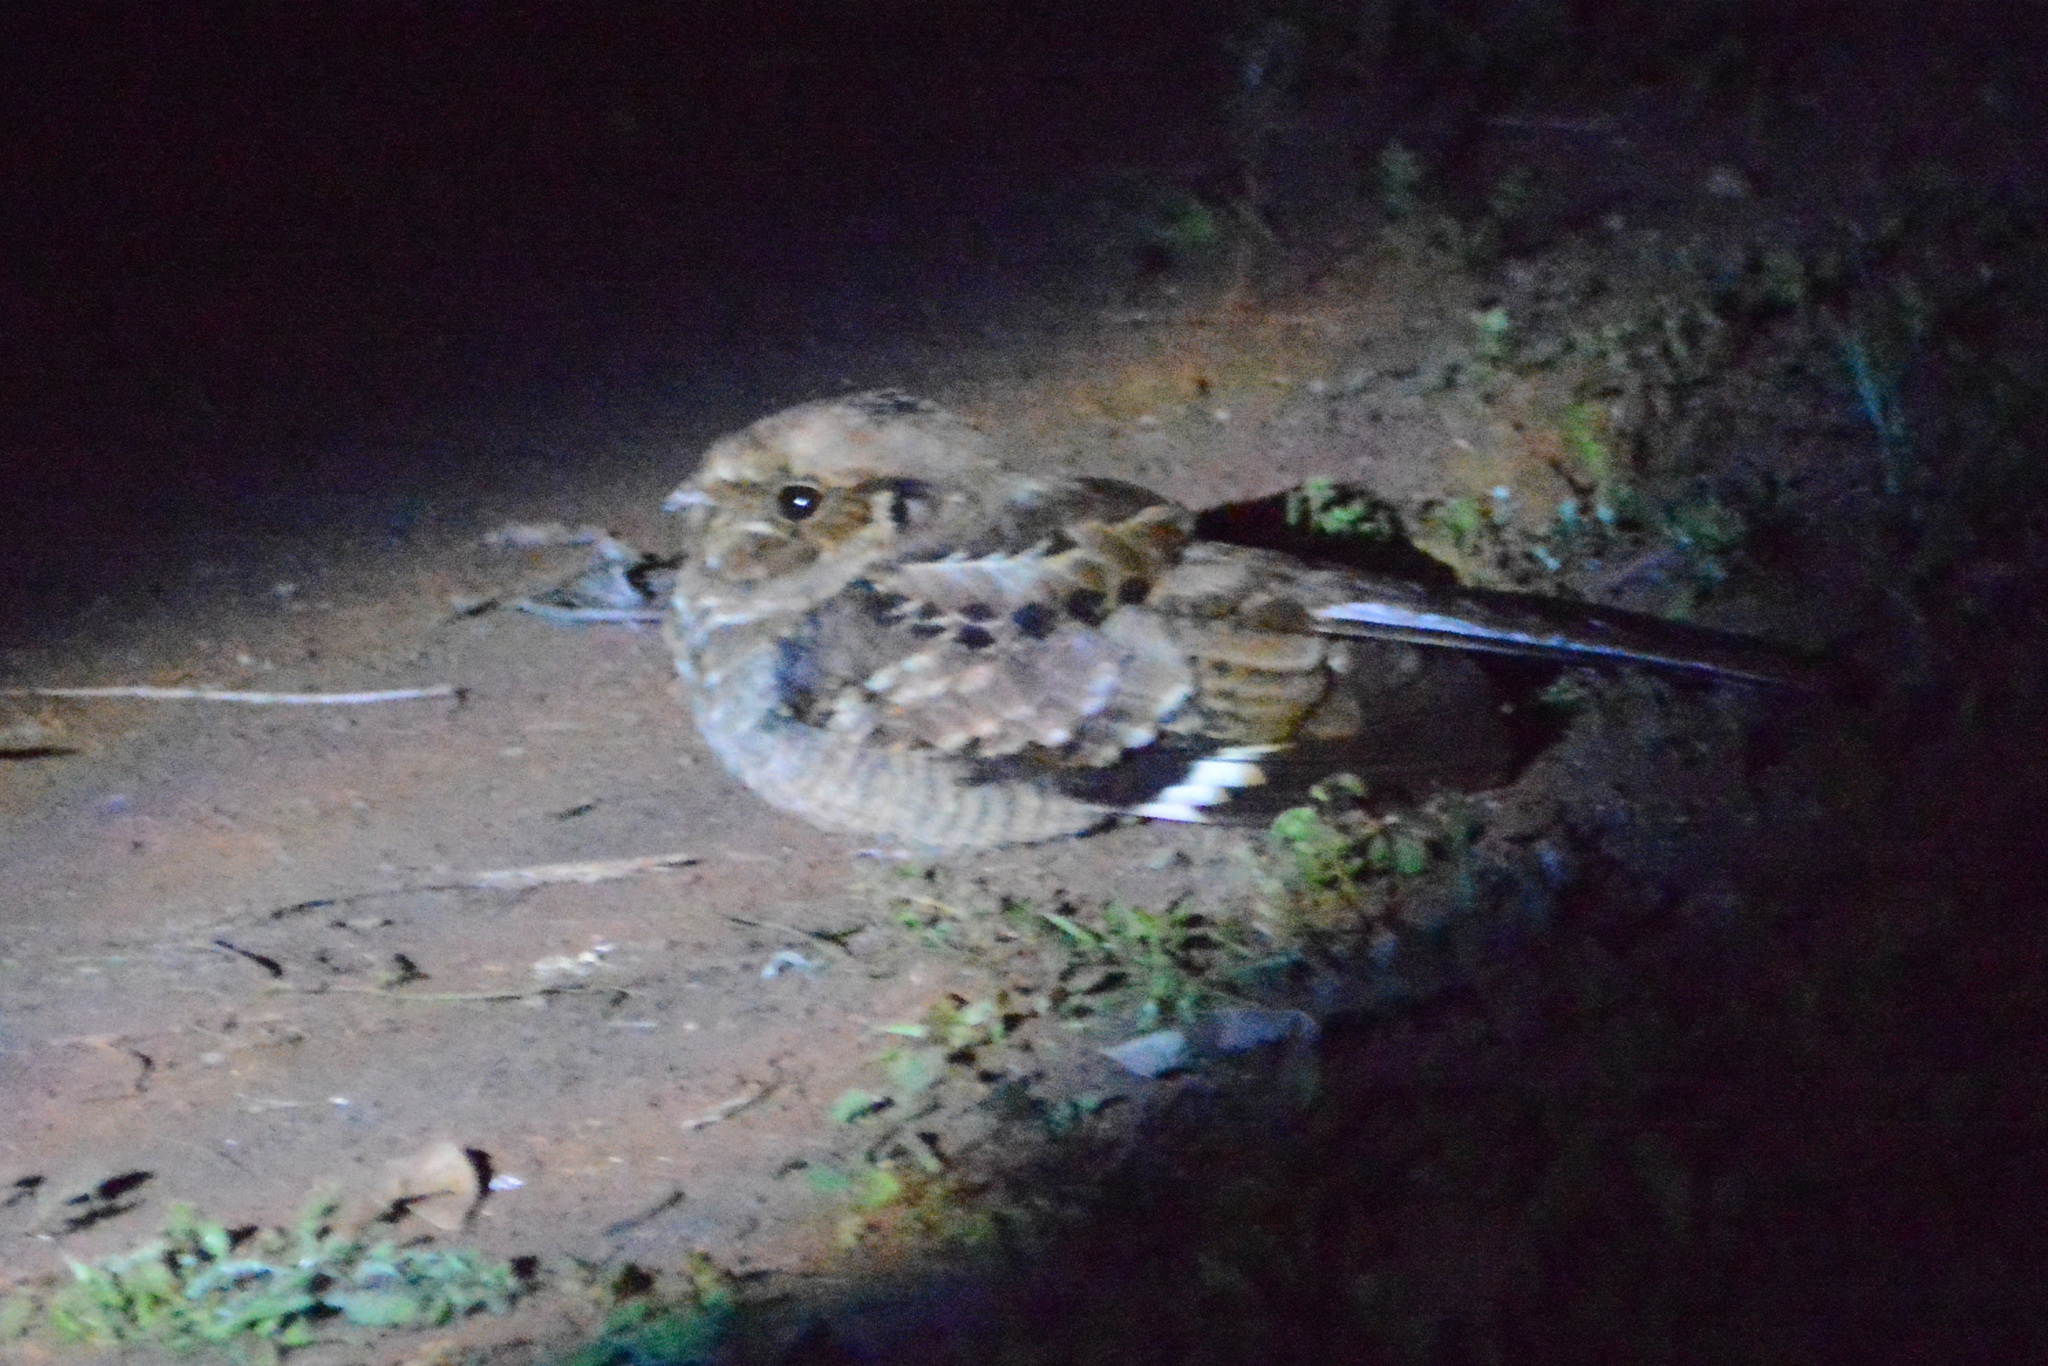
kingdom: Animalia
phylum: Chordata
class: Aves
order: Caprimulgiformes
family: Caprimulgidae
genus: Nyctidromus
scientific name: Nyctidromus albicollis
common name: Pauraque
